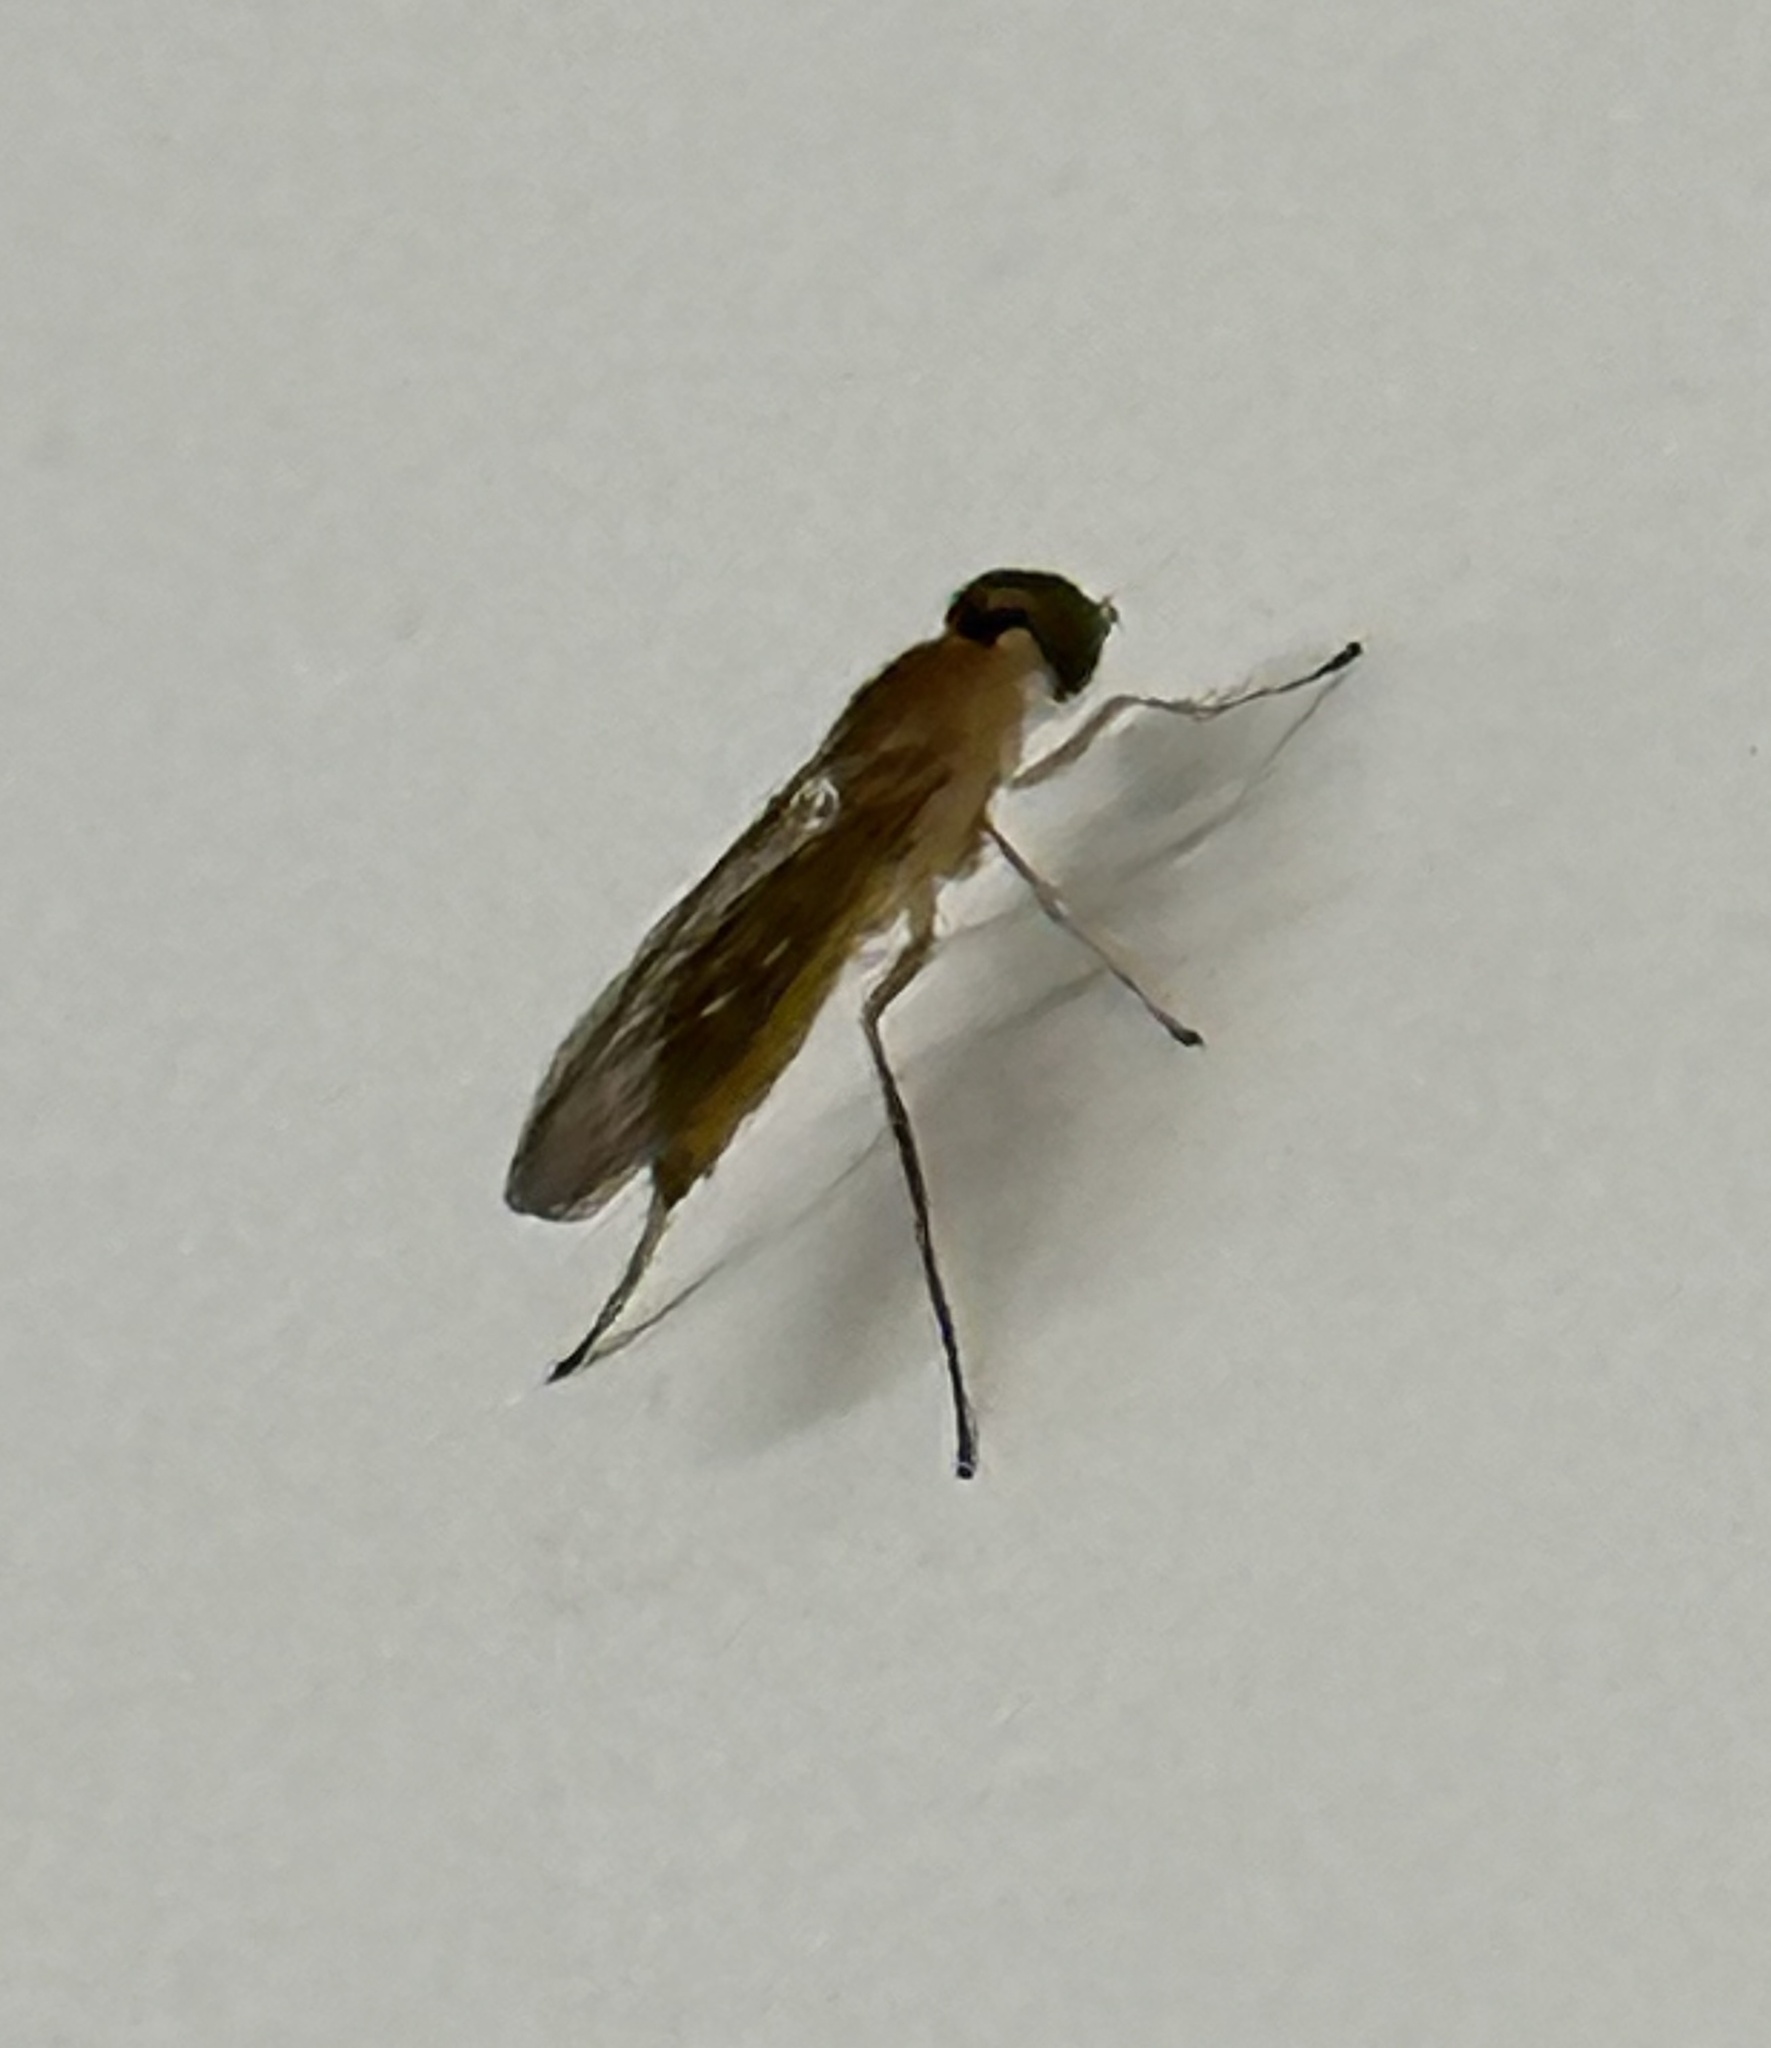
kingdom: Animalia
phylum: Arthropoda
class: Insecta
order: Diptera
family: Stratiomyidae
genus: Ptecticus
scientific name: Ptecticus trivittatus
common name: Compost fly
